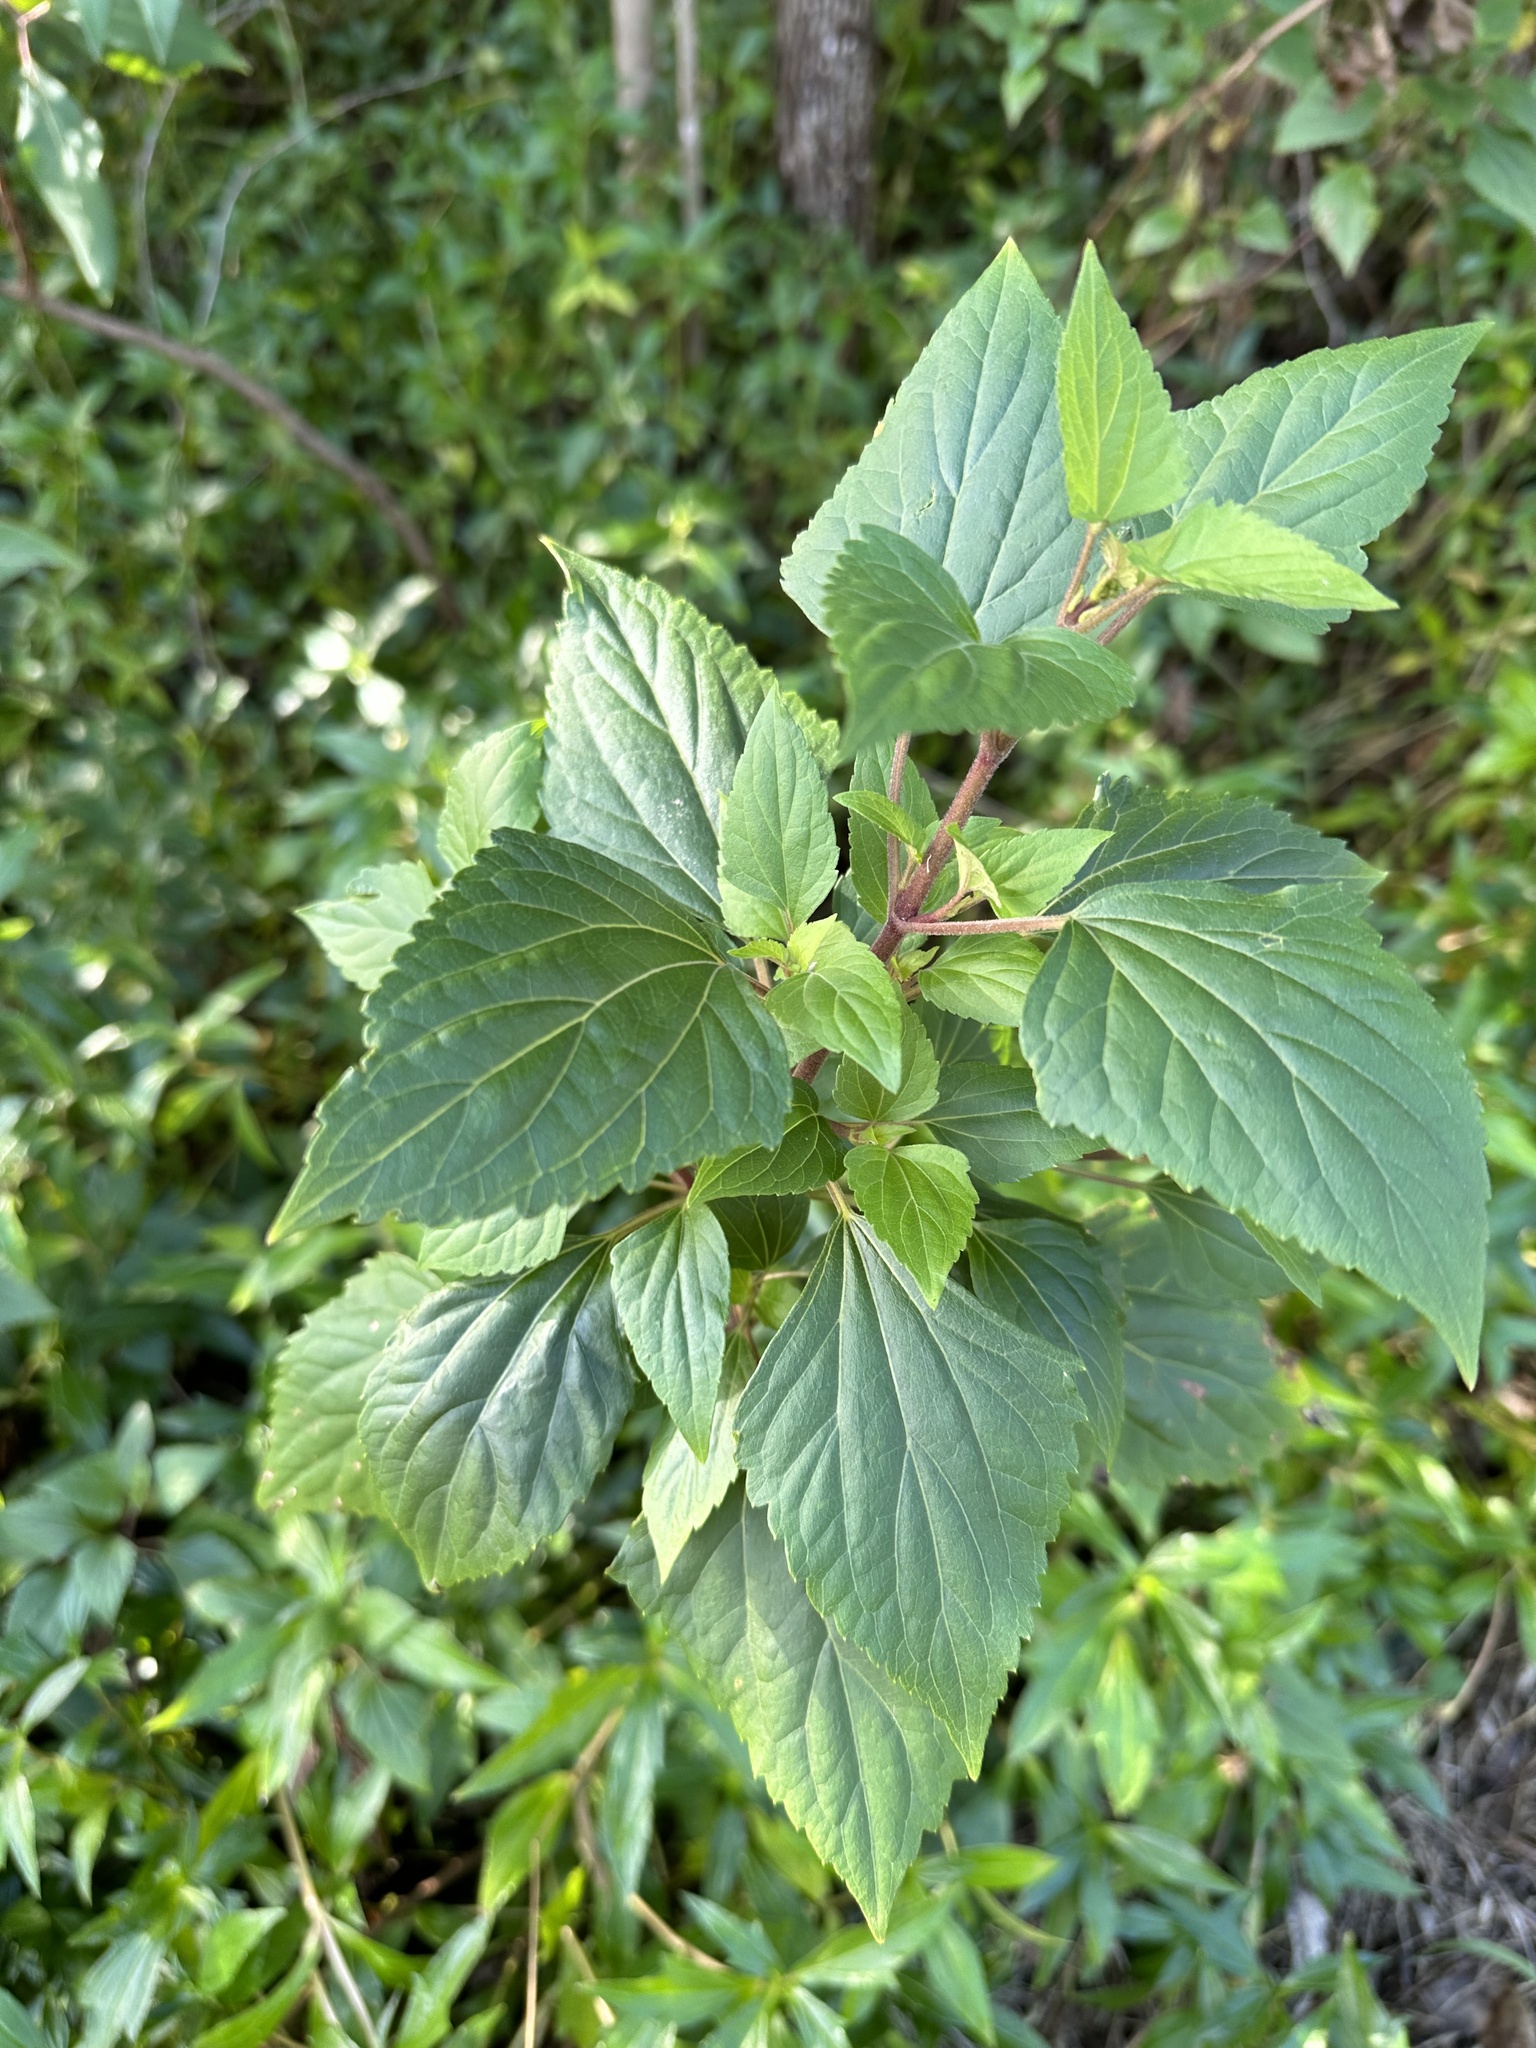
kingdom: Plantae
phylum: Tracheophyta
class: Magnoliopsida
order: Asterales
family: Asteraceae
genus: Ageratina
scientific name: Ageratina adenophora
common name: Sticky snakeroot
